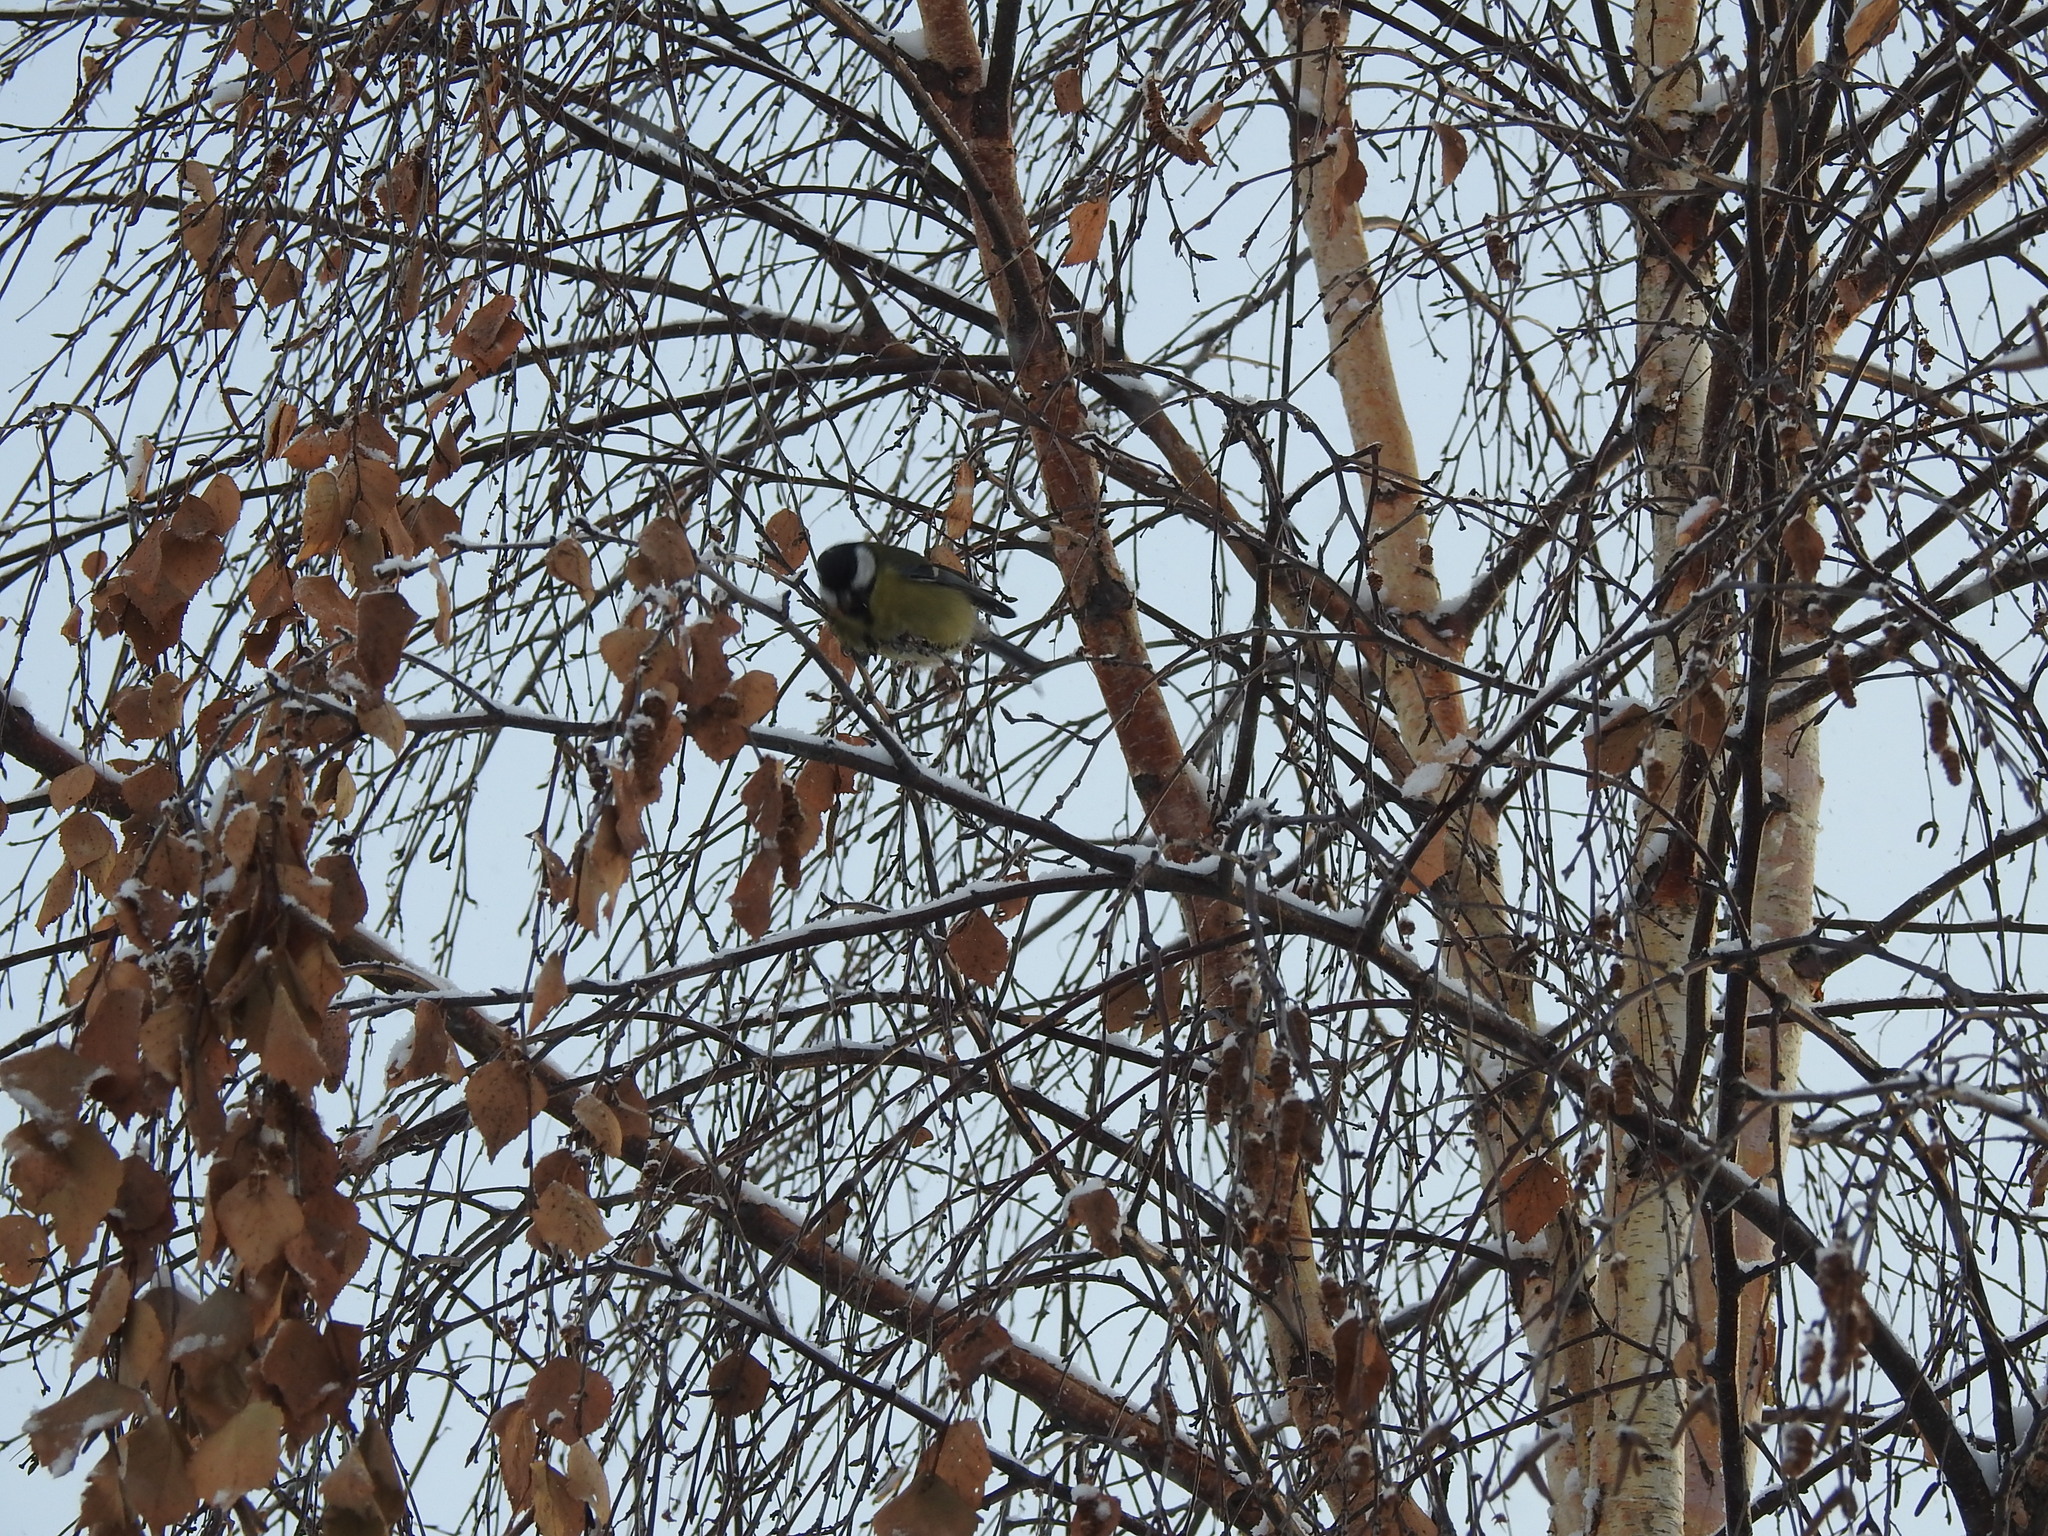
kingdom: Animalia
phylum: Chordata
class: Aves
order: Passeriformes
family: Paridae
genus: Parus
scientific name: Parus major
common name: Great tit
